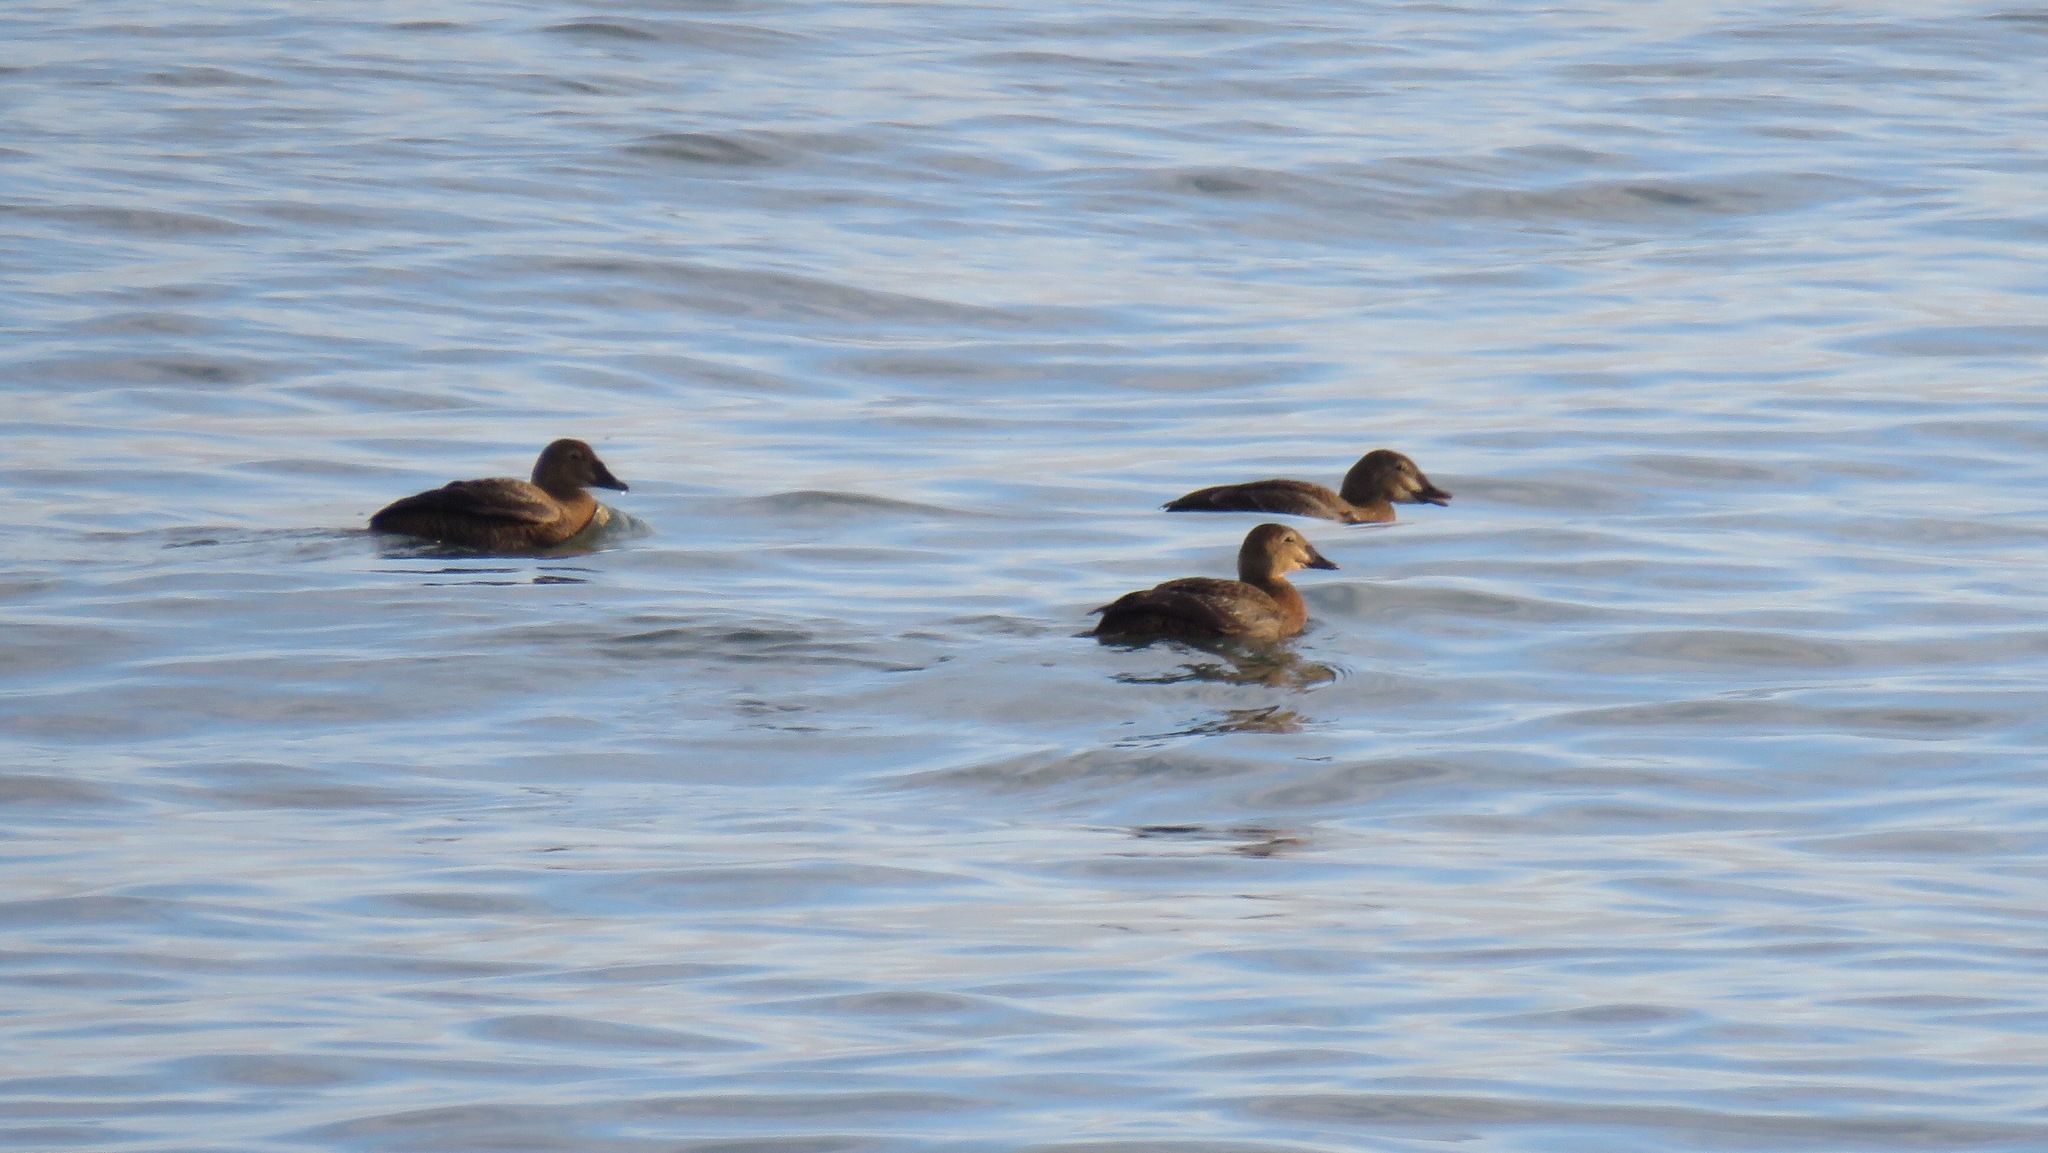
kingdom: Animalia
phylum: Chordata
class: Aves
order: Anseriformes
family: Anatidae
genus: Somateria
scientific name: Somateria spectabilis
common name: King eider
